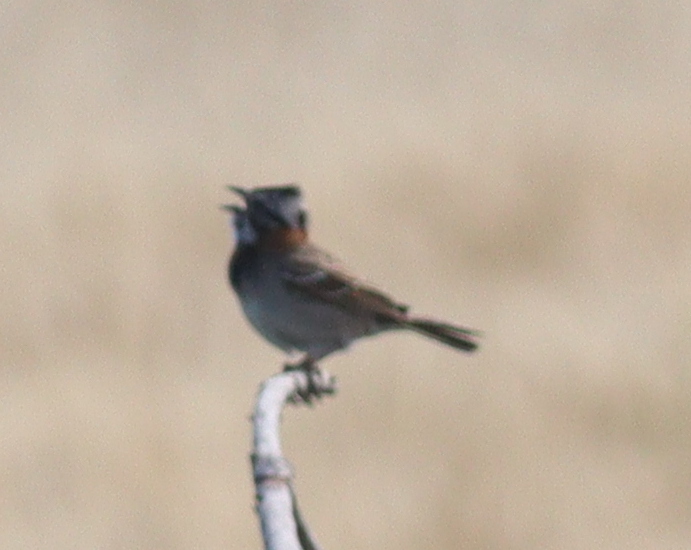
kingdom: Animalia
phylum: Chordata
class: Aves
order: Passeriformes
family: Passerellidae
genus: Zonotrichia
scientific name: Zonotrichia capensis
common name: Rufous-collared sparrow
